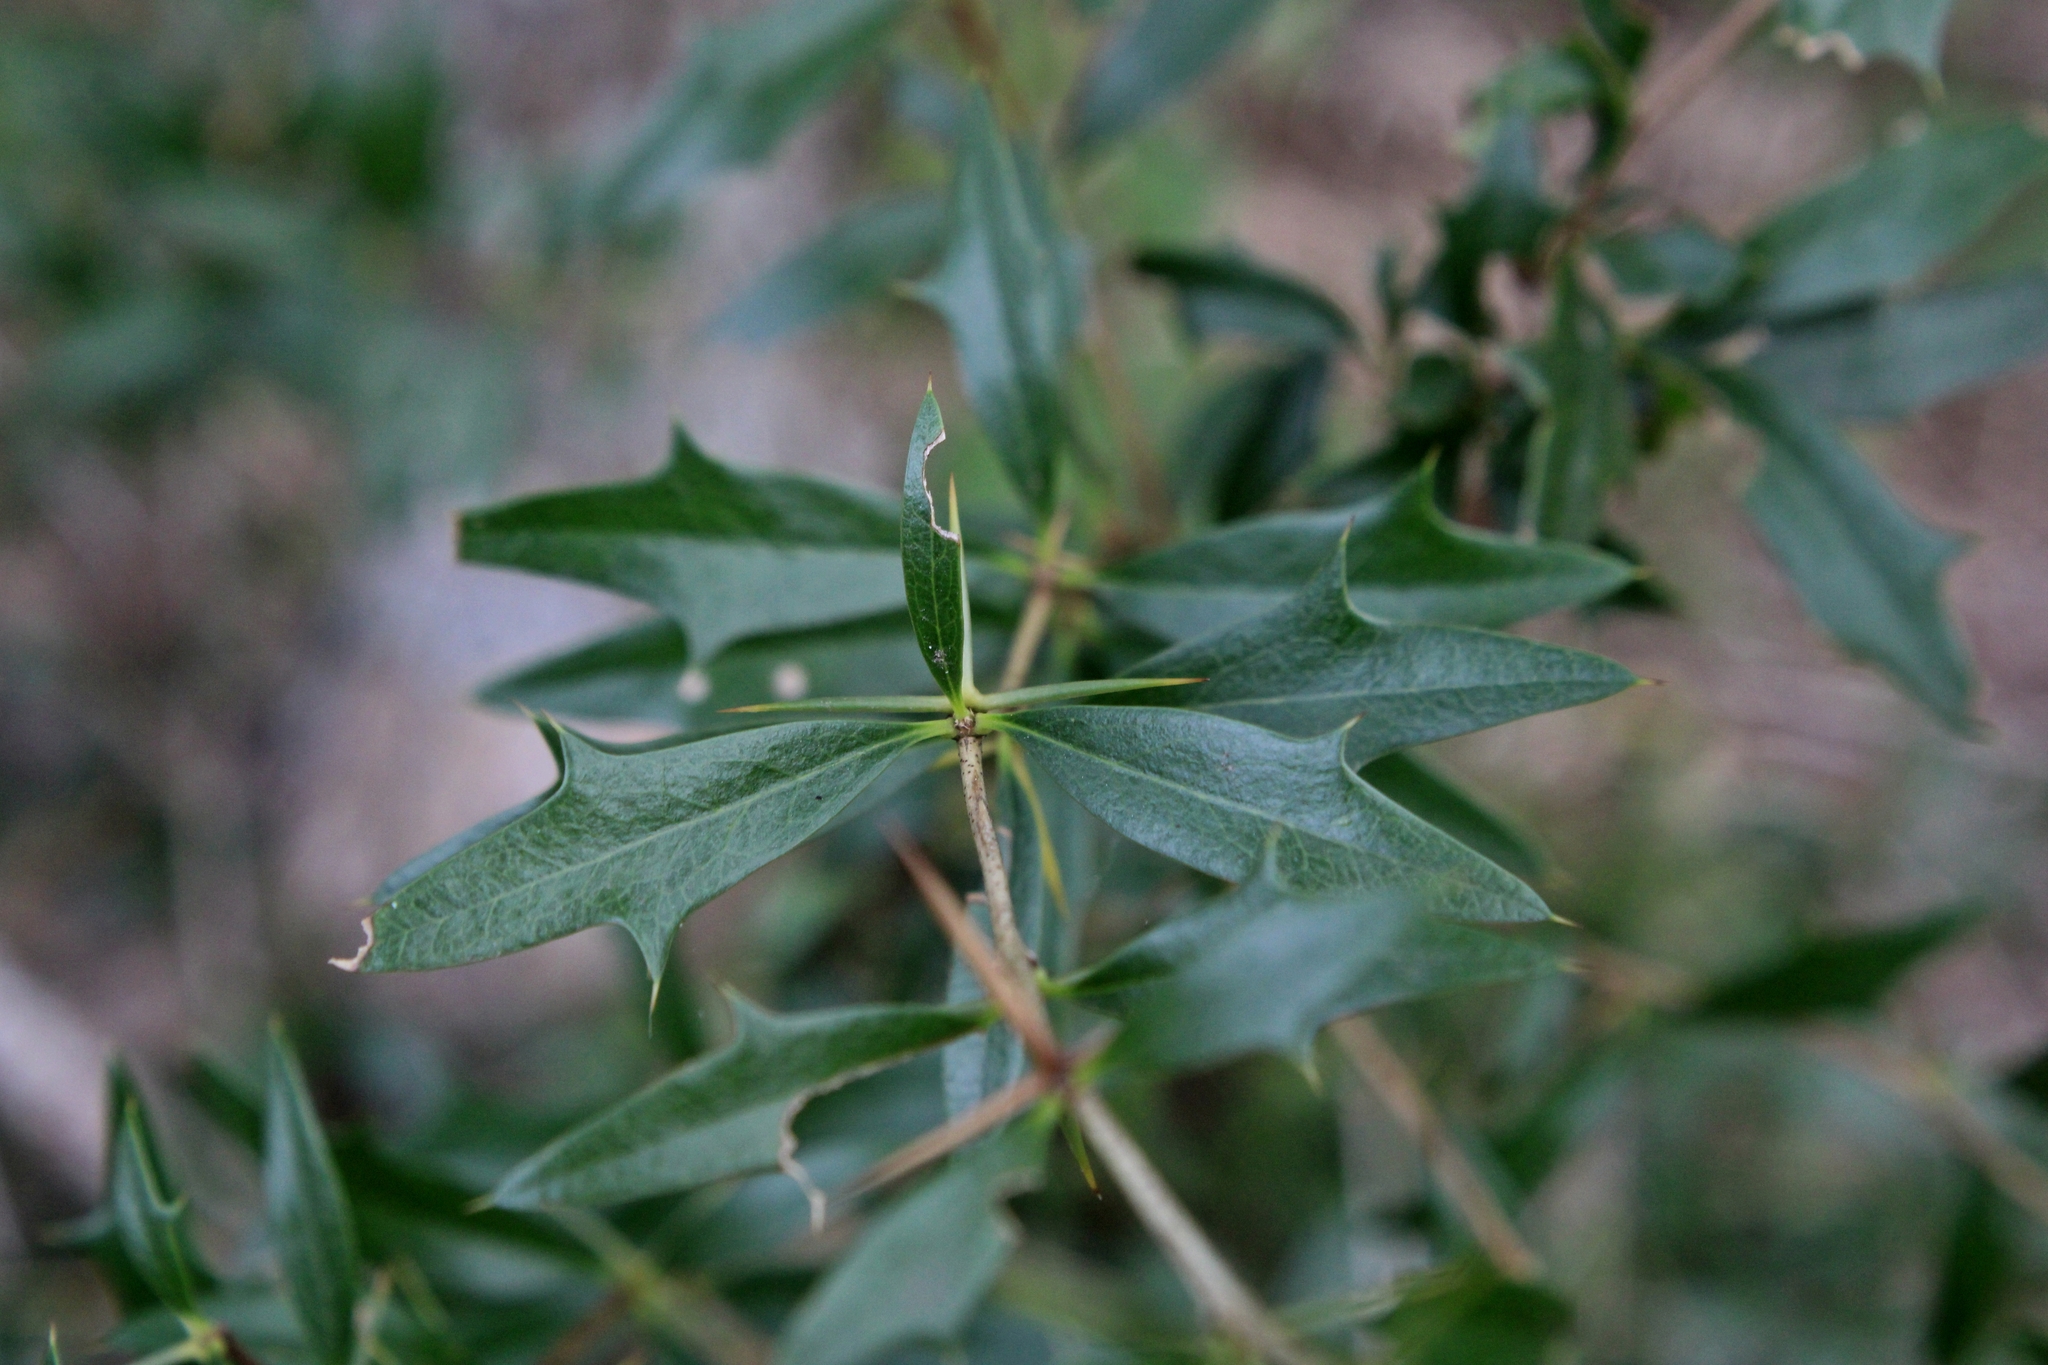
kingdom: Plantae
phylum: Tracheophyta
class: Magnoliopsida
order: Ranunculales
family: Berberidaceae
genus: Berberis
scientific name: Berberis ruscifolia
